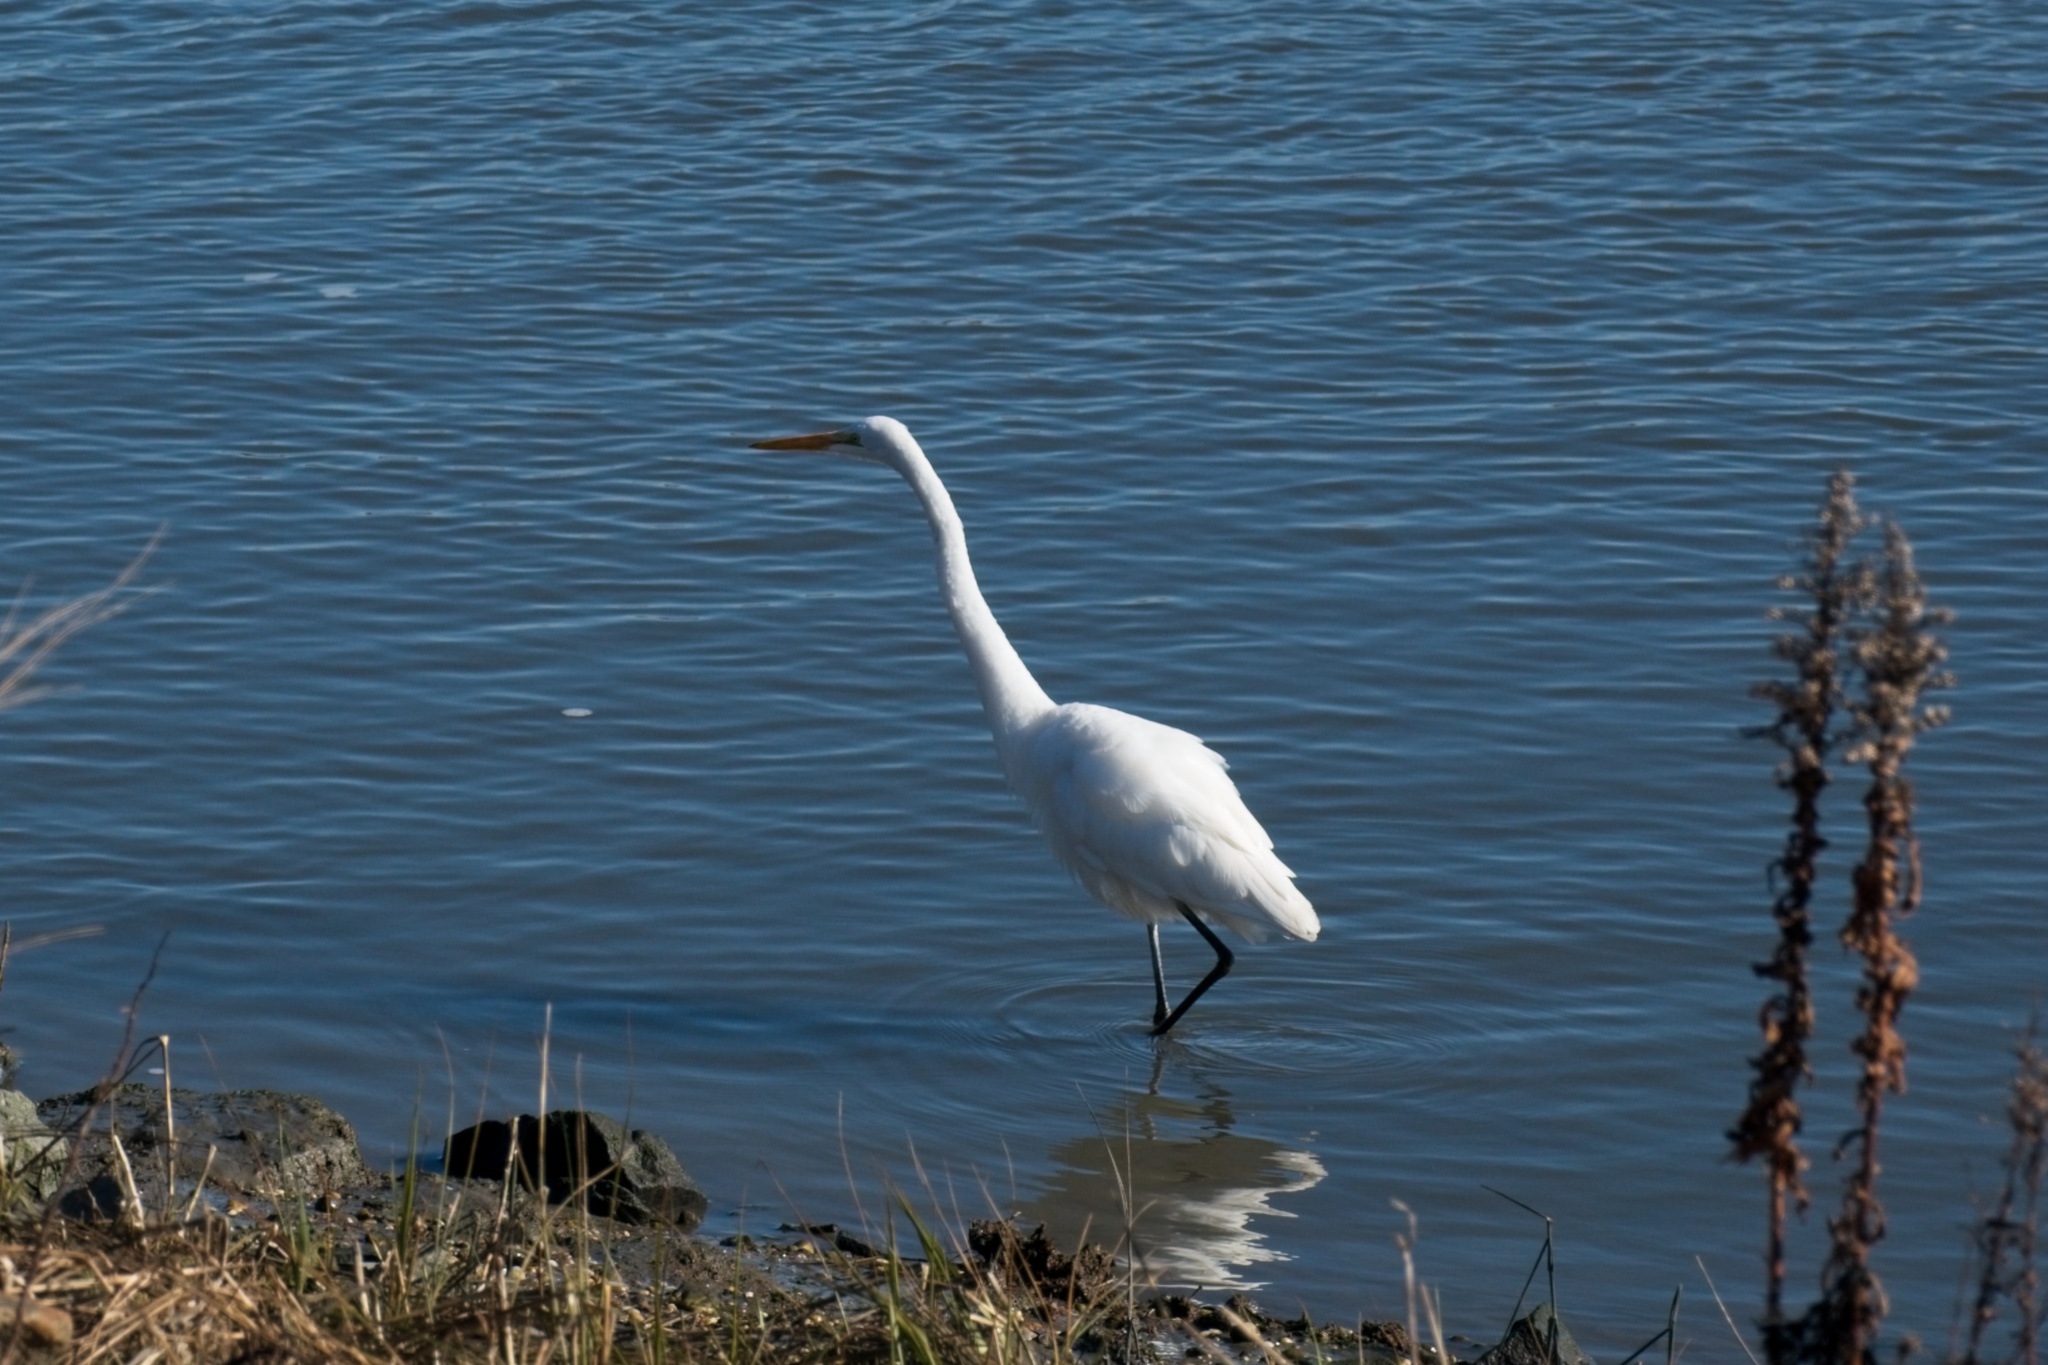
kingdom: Animalia
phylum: Chordata
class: Aves
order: Pelecaniformes
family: Ardeidae
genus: Ardea
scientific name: Ardea alba
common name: Great egret
